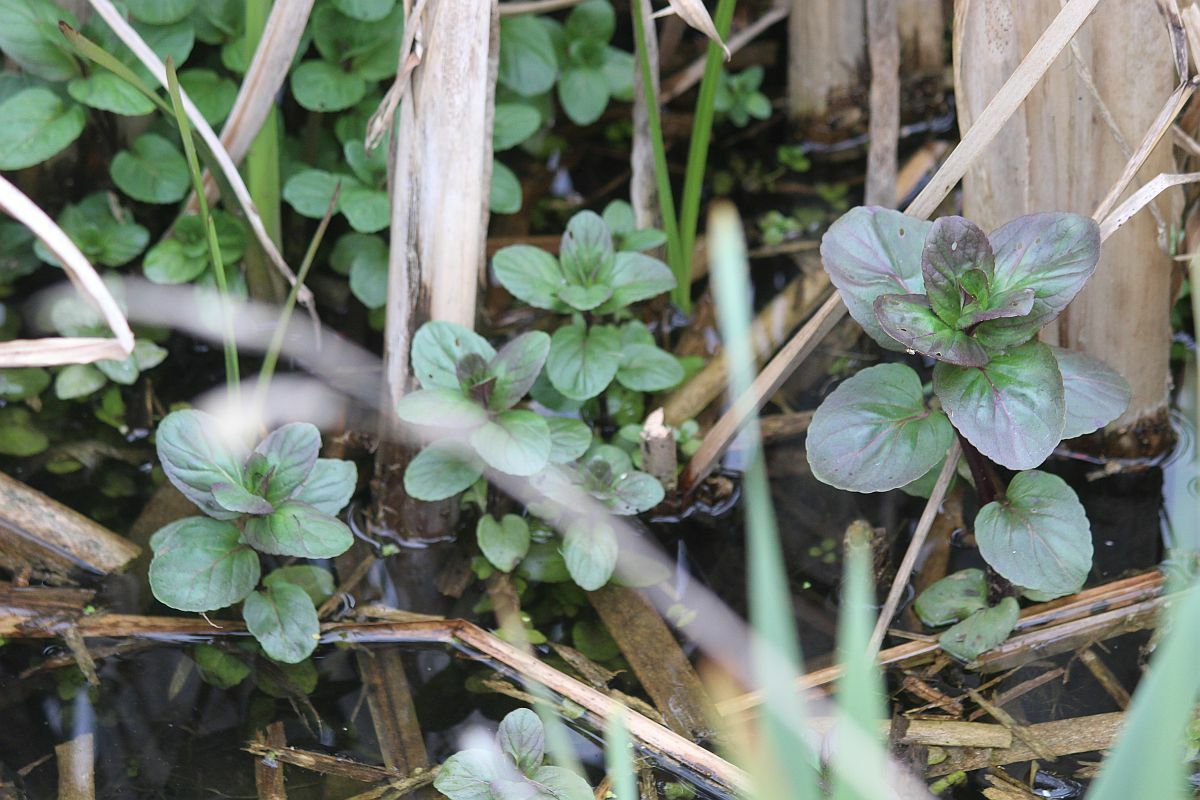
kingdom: Plantae
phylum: Tracheophyta
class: Magnoliopsida
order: Lamiales
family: Plantaginaceae
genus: Veronica
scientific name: Veronica beccabunga
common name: Brooklime
